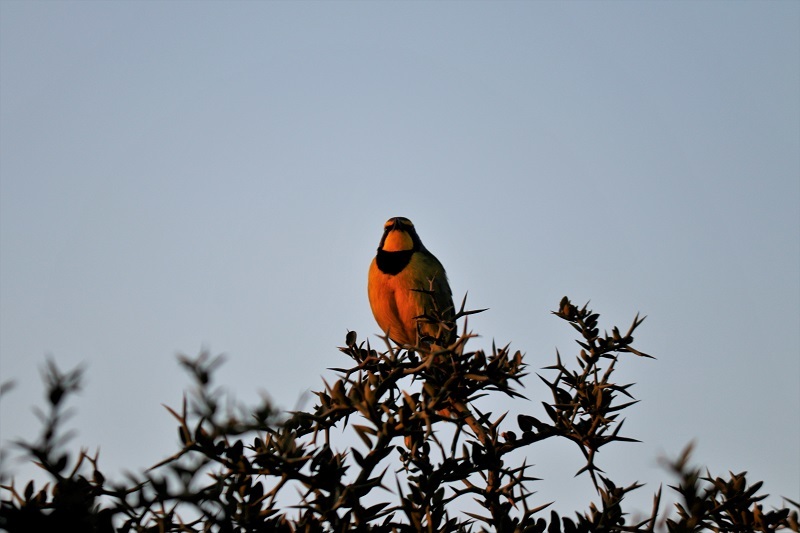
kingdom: Animalia
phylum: Chordata
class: Aves
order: Passeriformes
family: Malaconotidae
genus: Telophorus
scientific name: Telophorus zeylonus
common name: Bokmakierie
